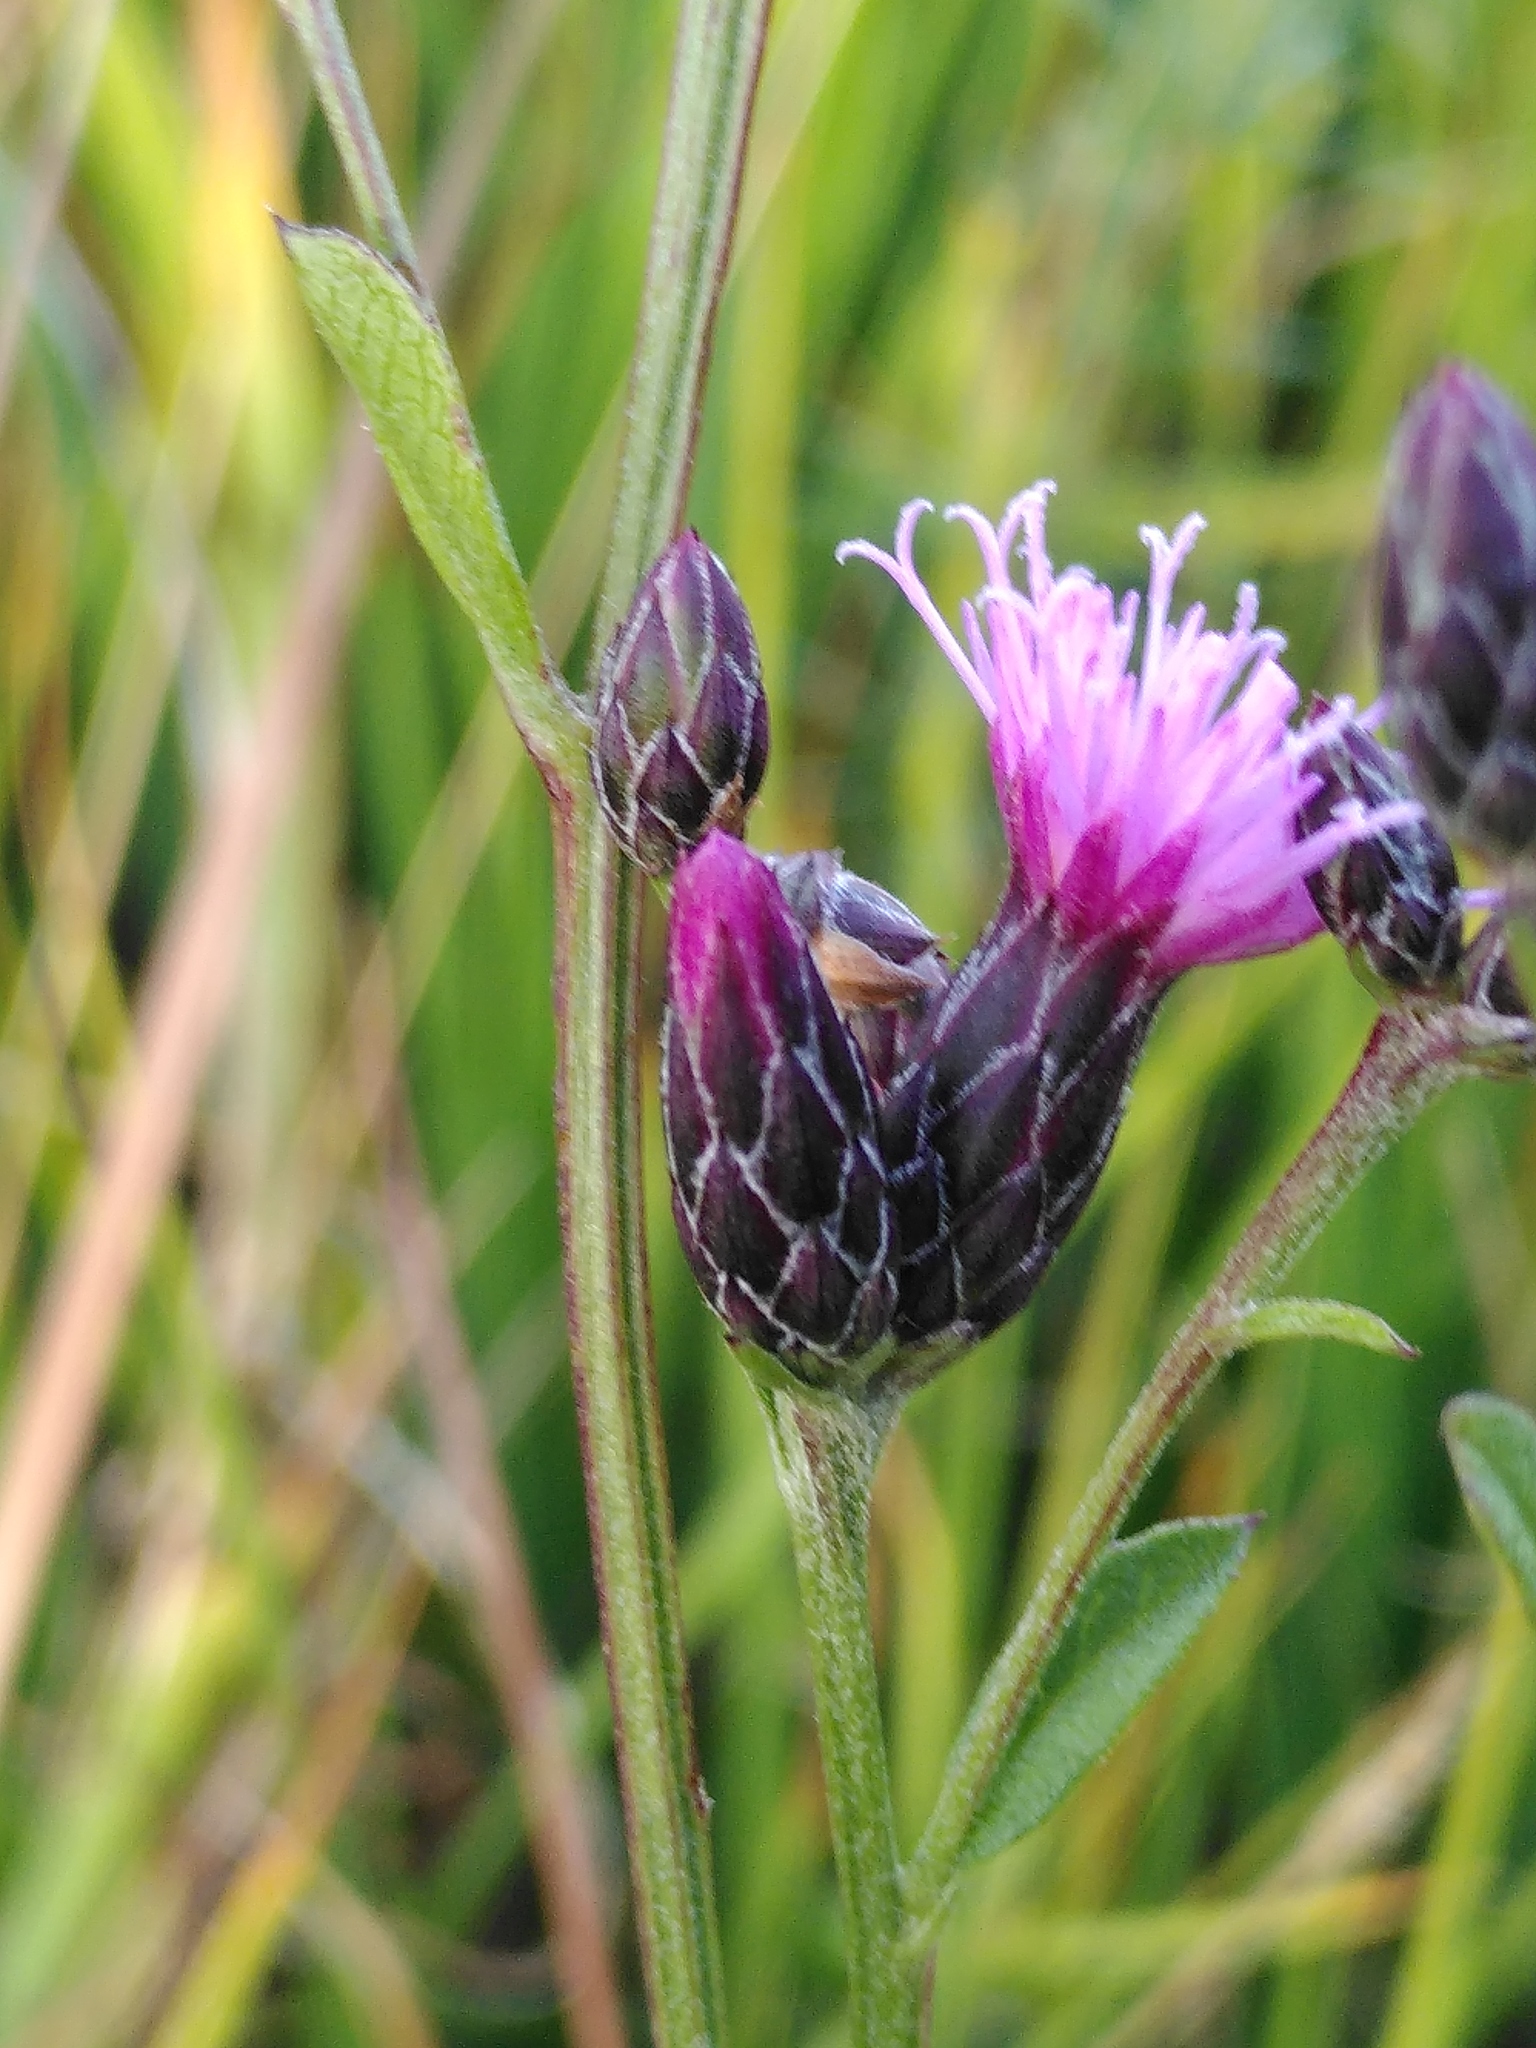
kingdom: Plantae
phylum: Tracheophyta
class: Magnoliopsida
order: Asterales
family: Asteraceae
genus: Serratula
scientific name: Serratula tinctoria
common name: Saw-wort
